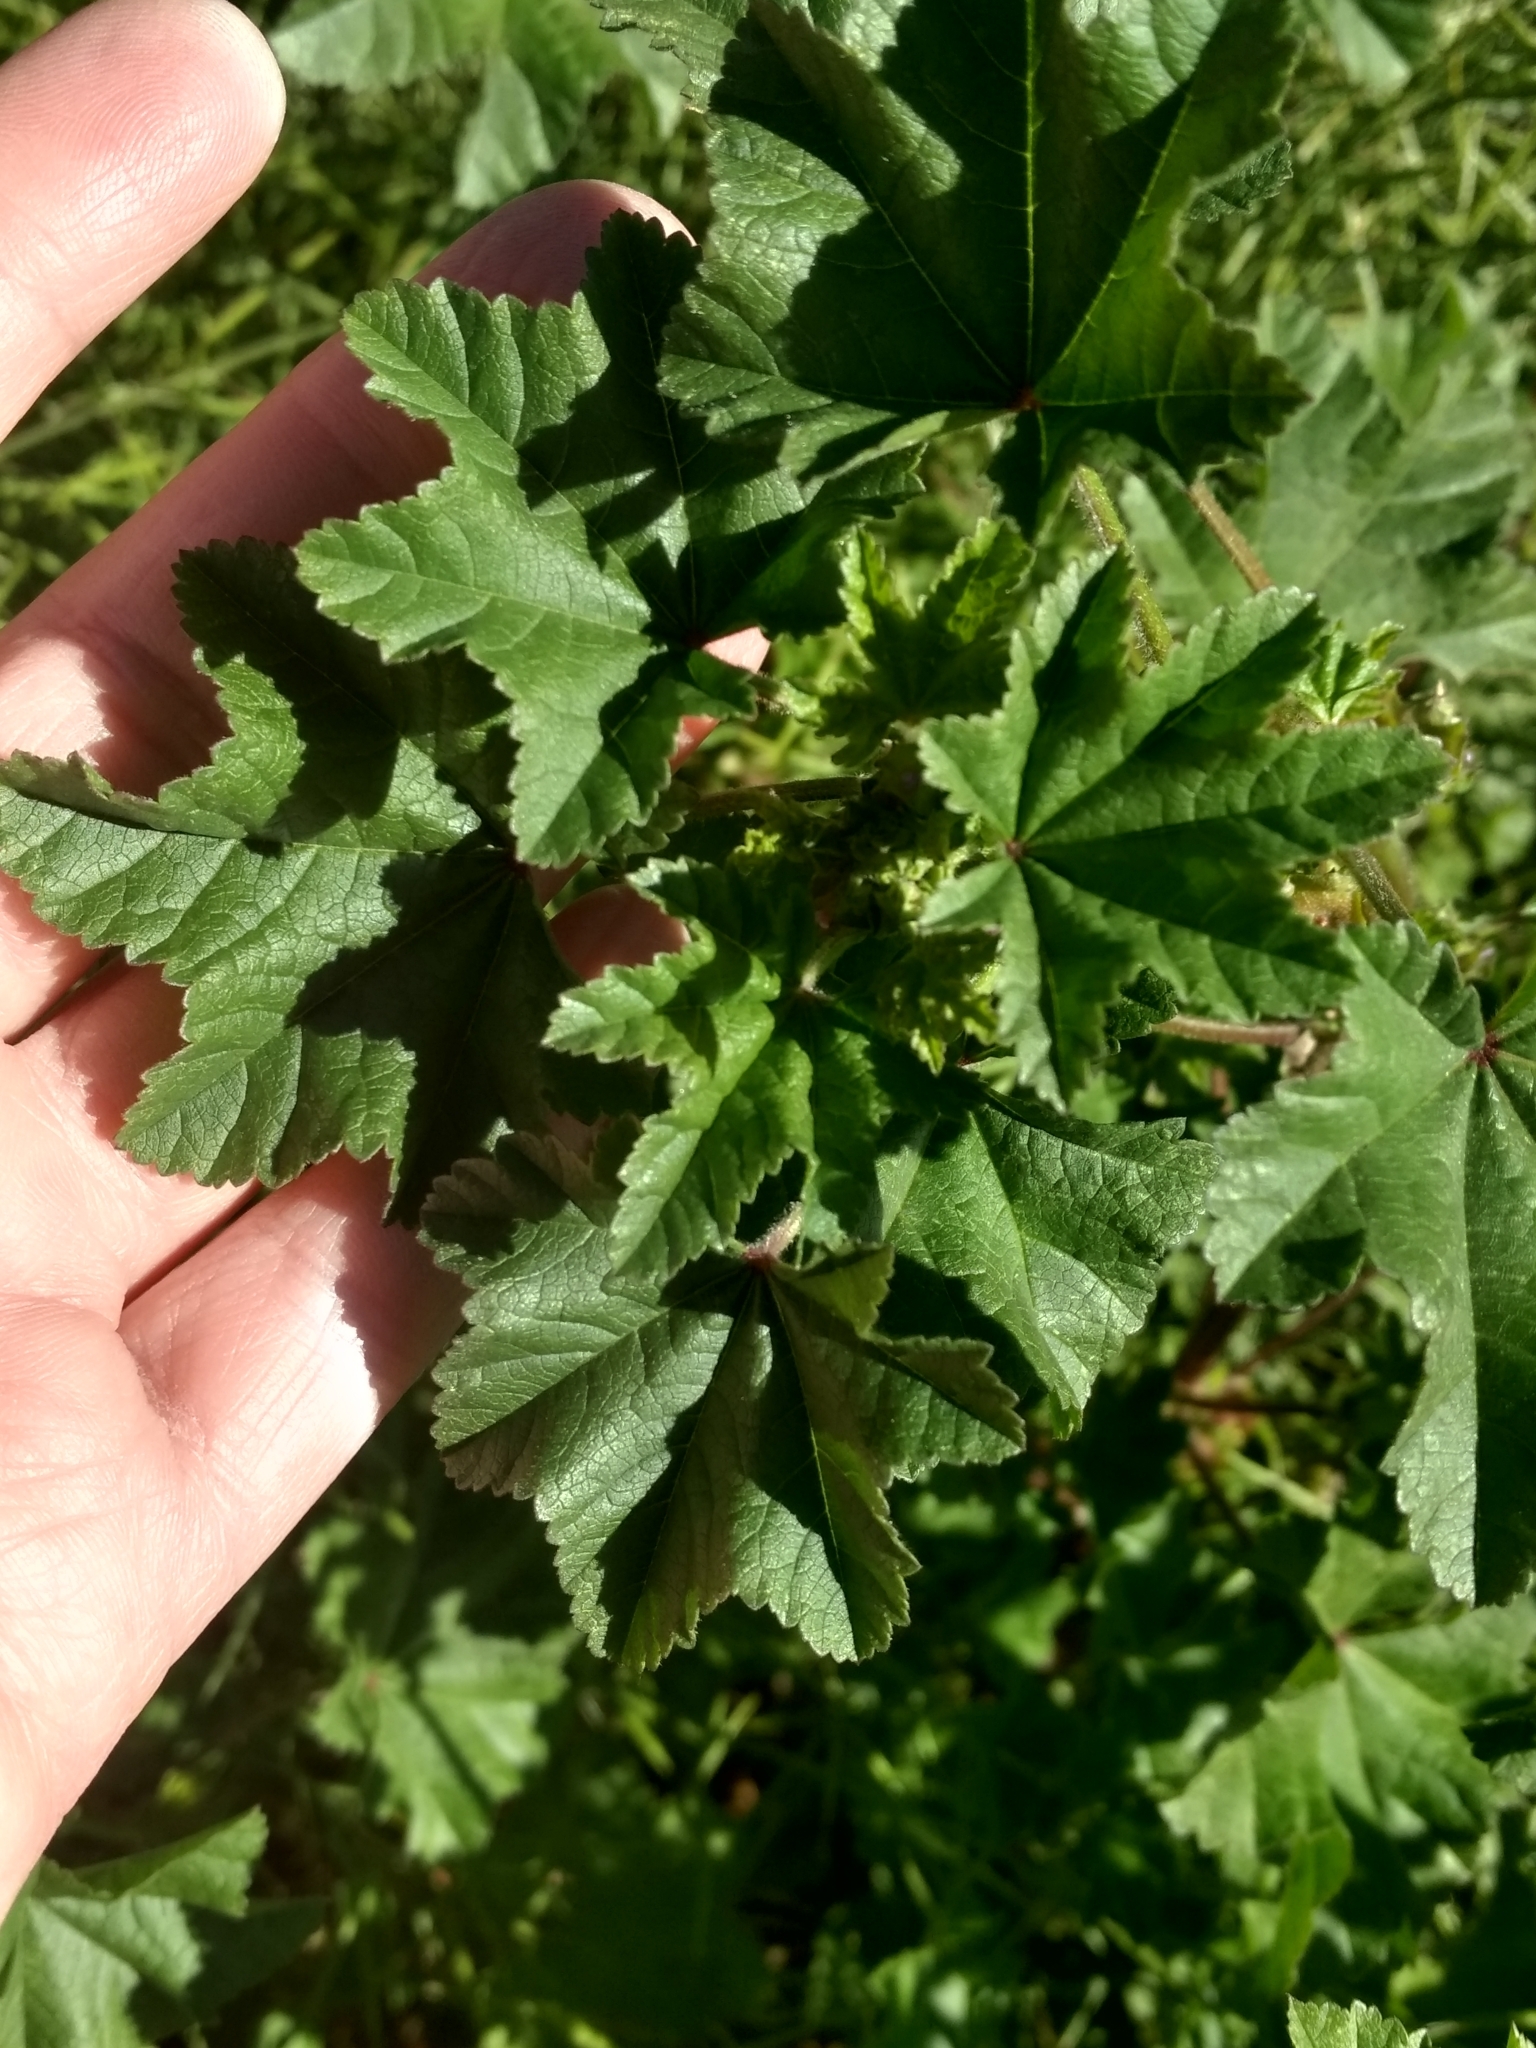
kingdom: Plantae
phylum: Tracheophyta
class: Magnoliopsida
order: Malvales
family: Malvaceae
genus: Malva
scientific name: Malva parviflora
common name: Least mallow
